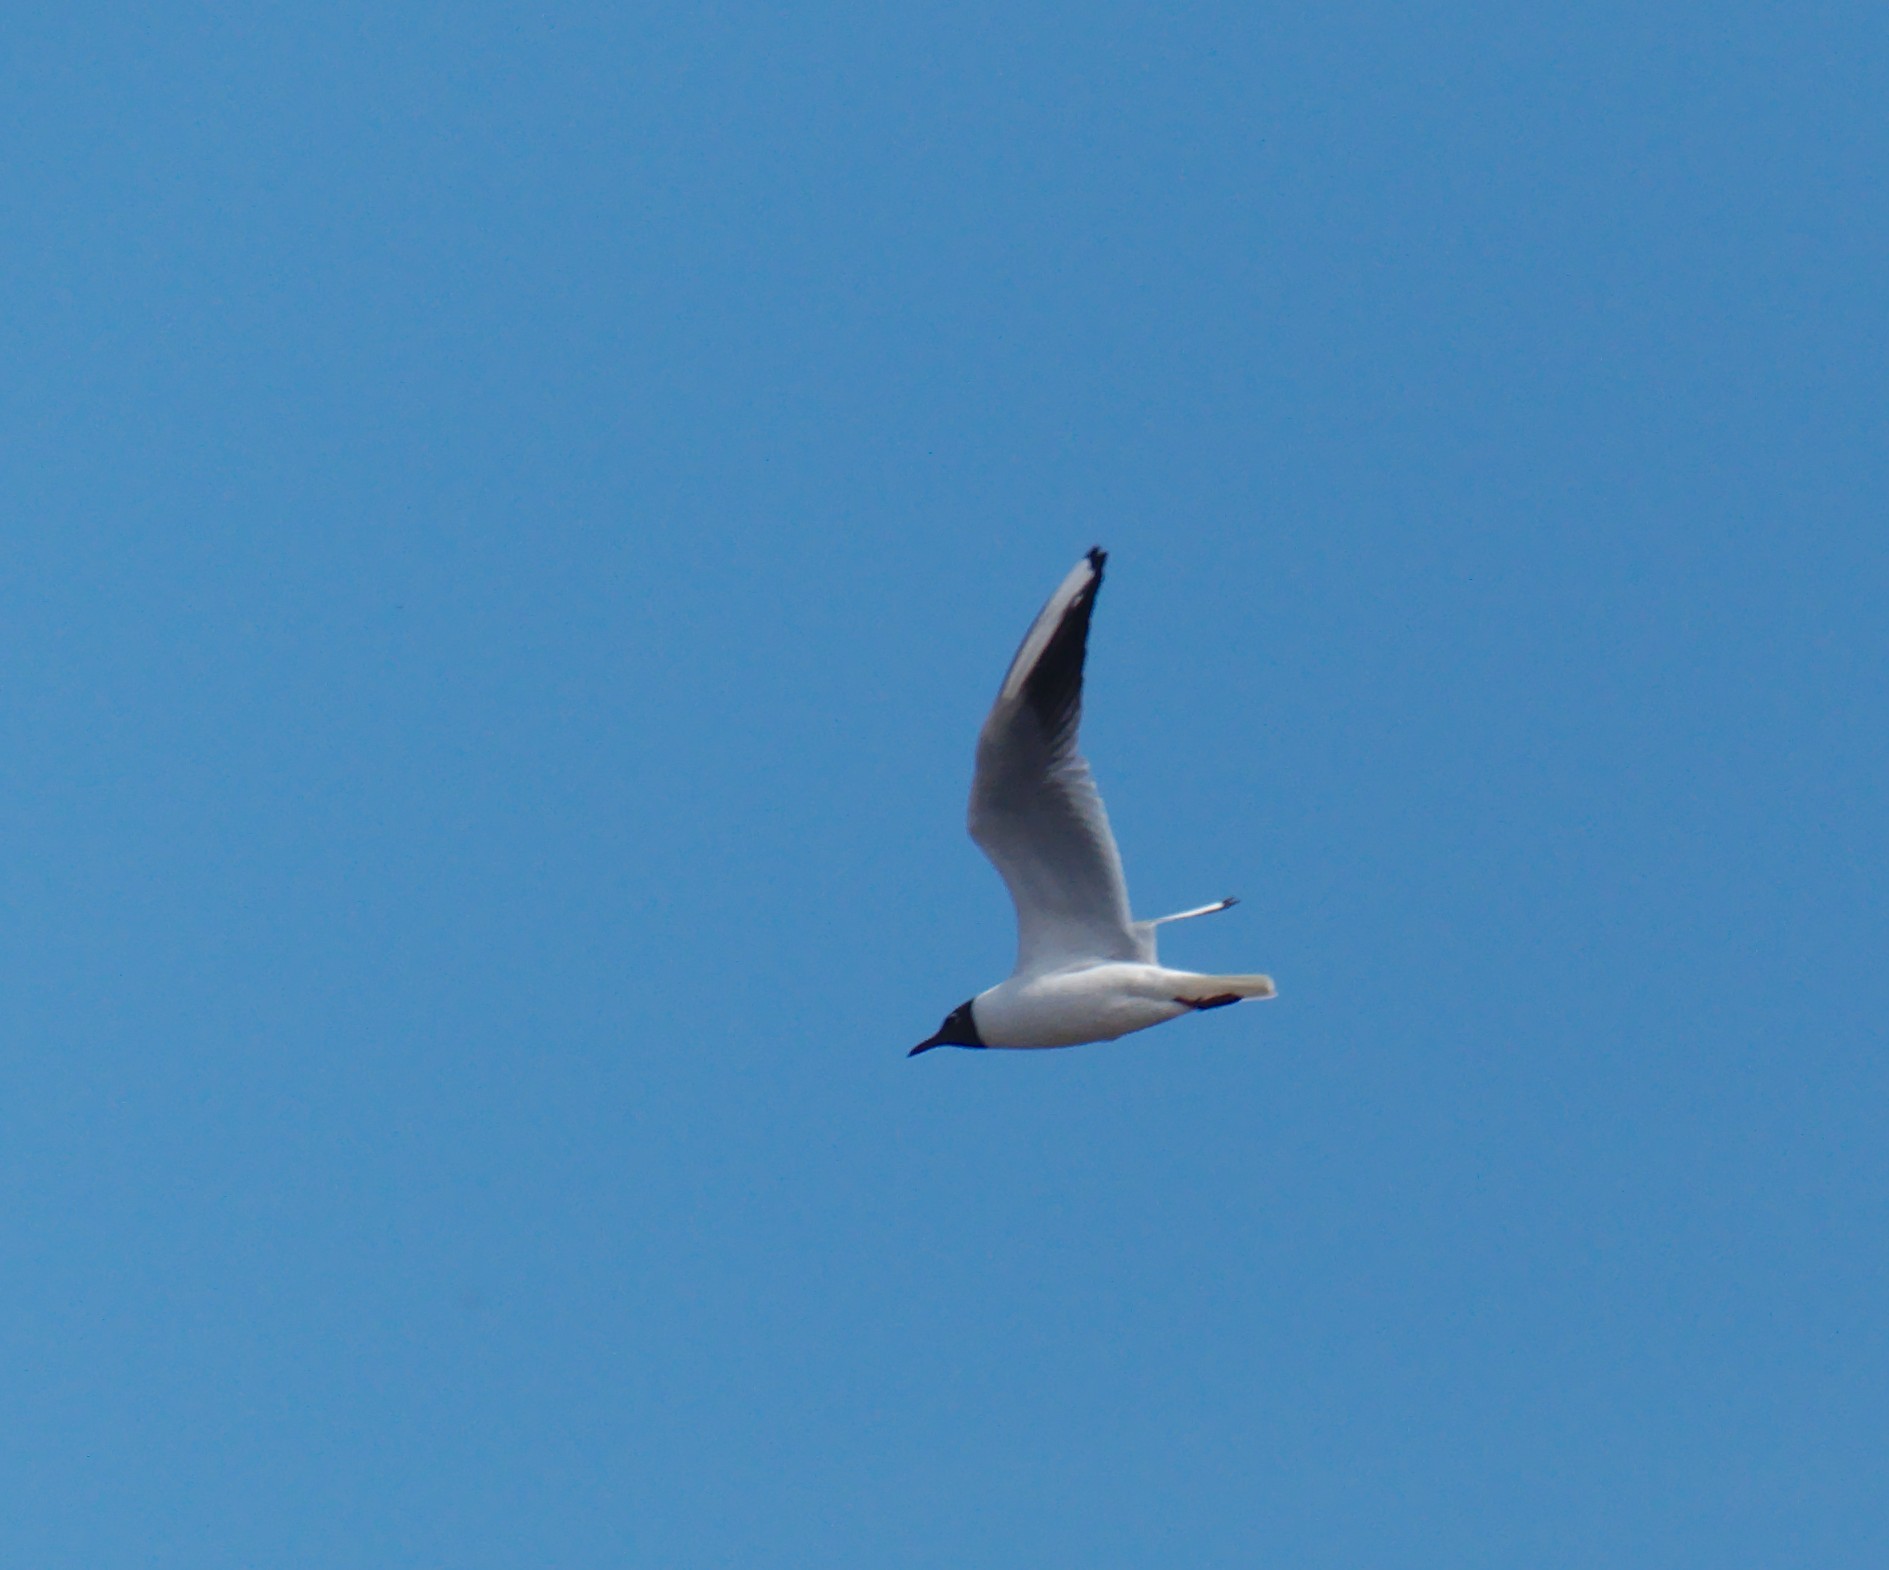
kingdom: Animalia
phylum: Chordata
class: Aves
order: Charadriiformes
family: Laridae
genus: Chroicocephalus
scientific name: Chroicocephalus ridibundus
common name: Black-headed gull
